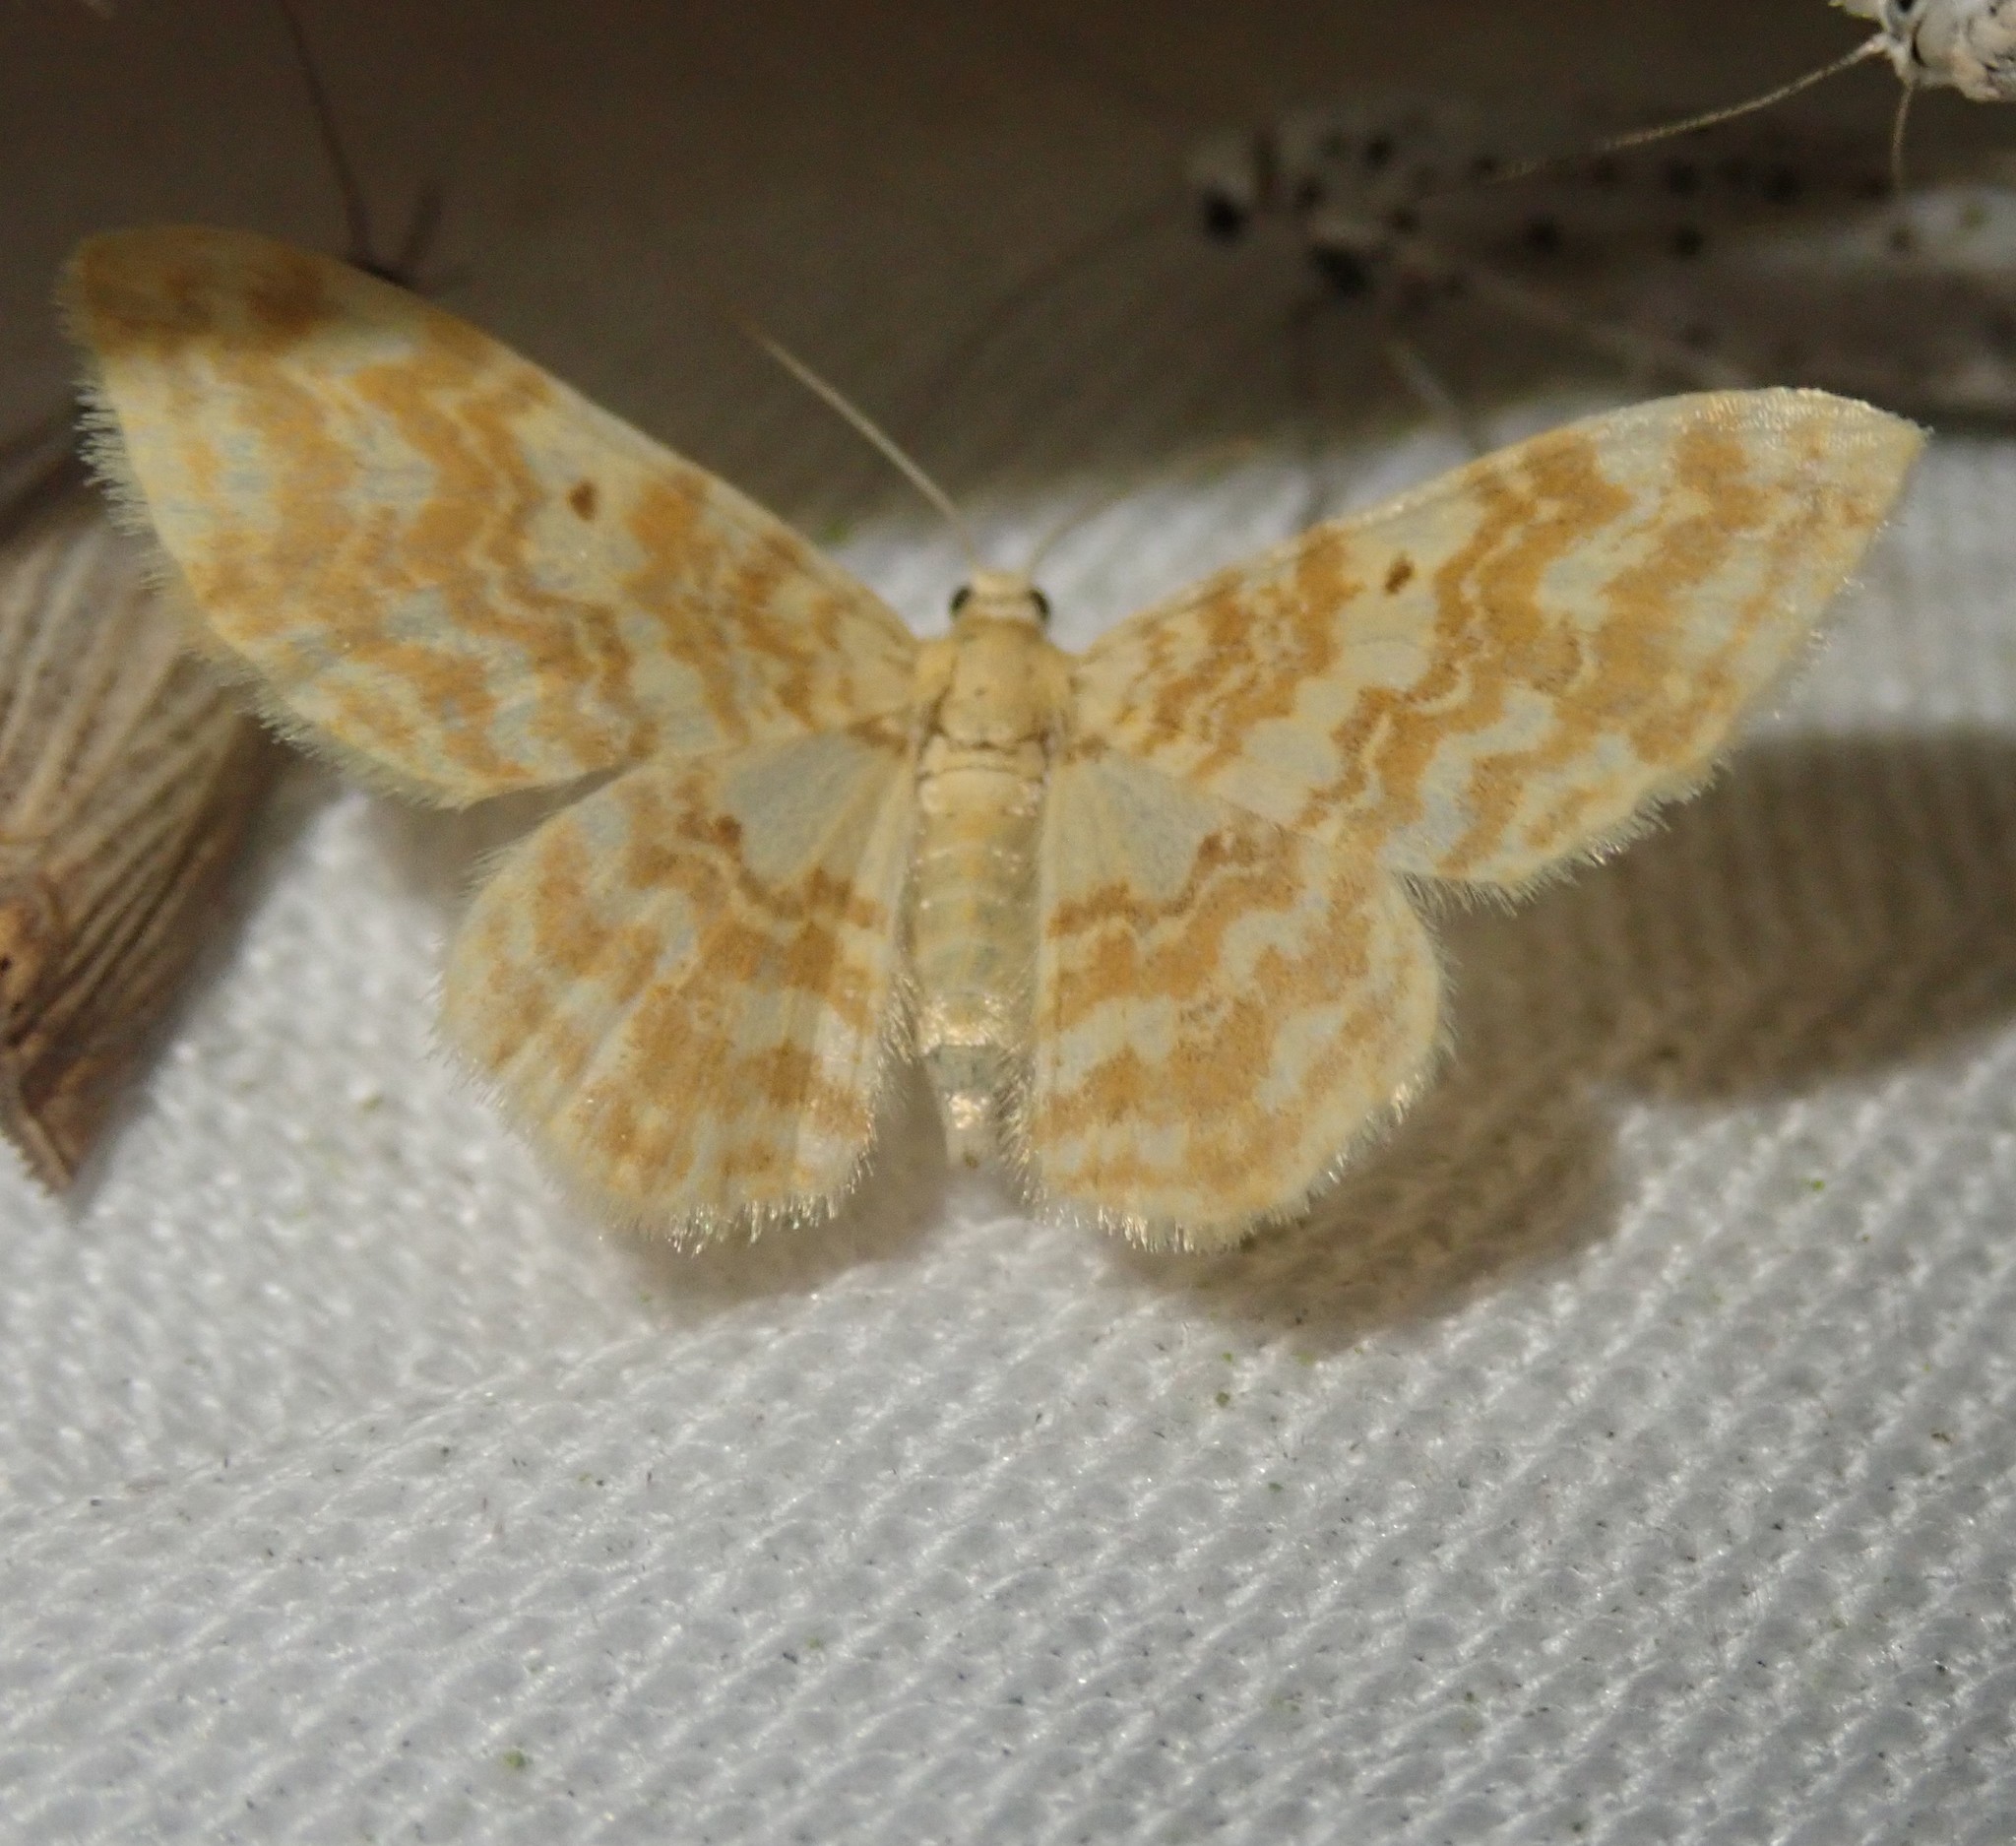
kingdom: Animalia
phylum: Arthropoda
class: Insecta
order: Lepidoptera
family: Geometridae
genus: Hydrelia
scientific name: Hydrelia flammeolaria
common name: Small yellow wave
